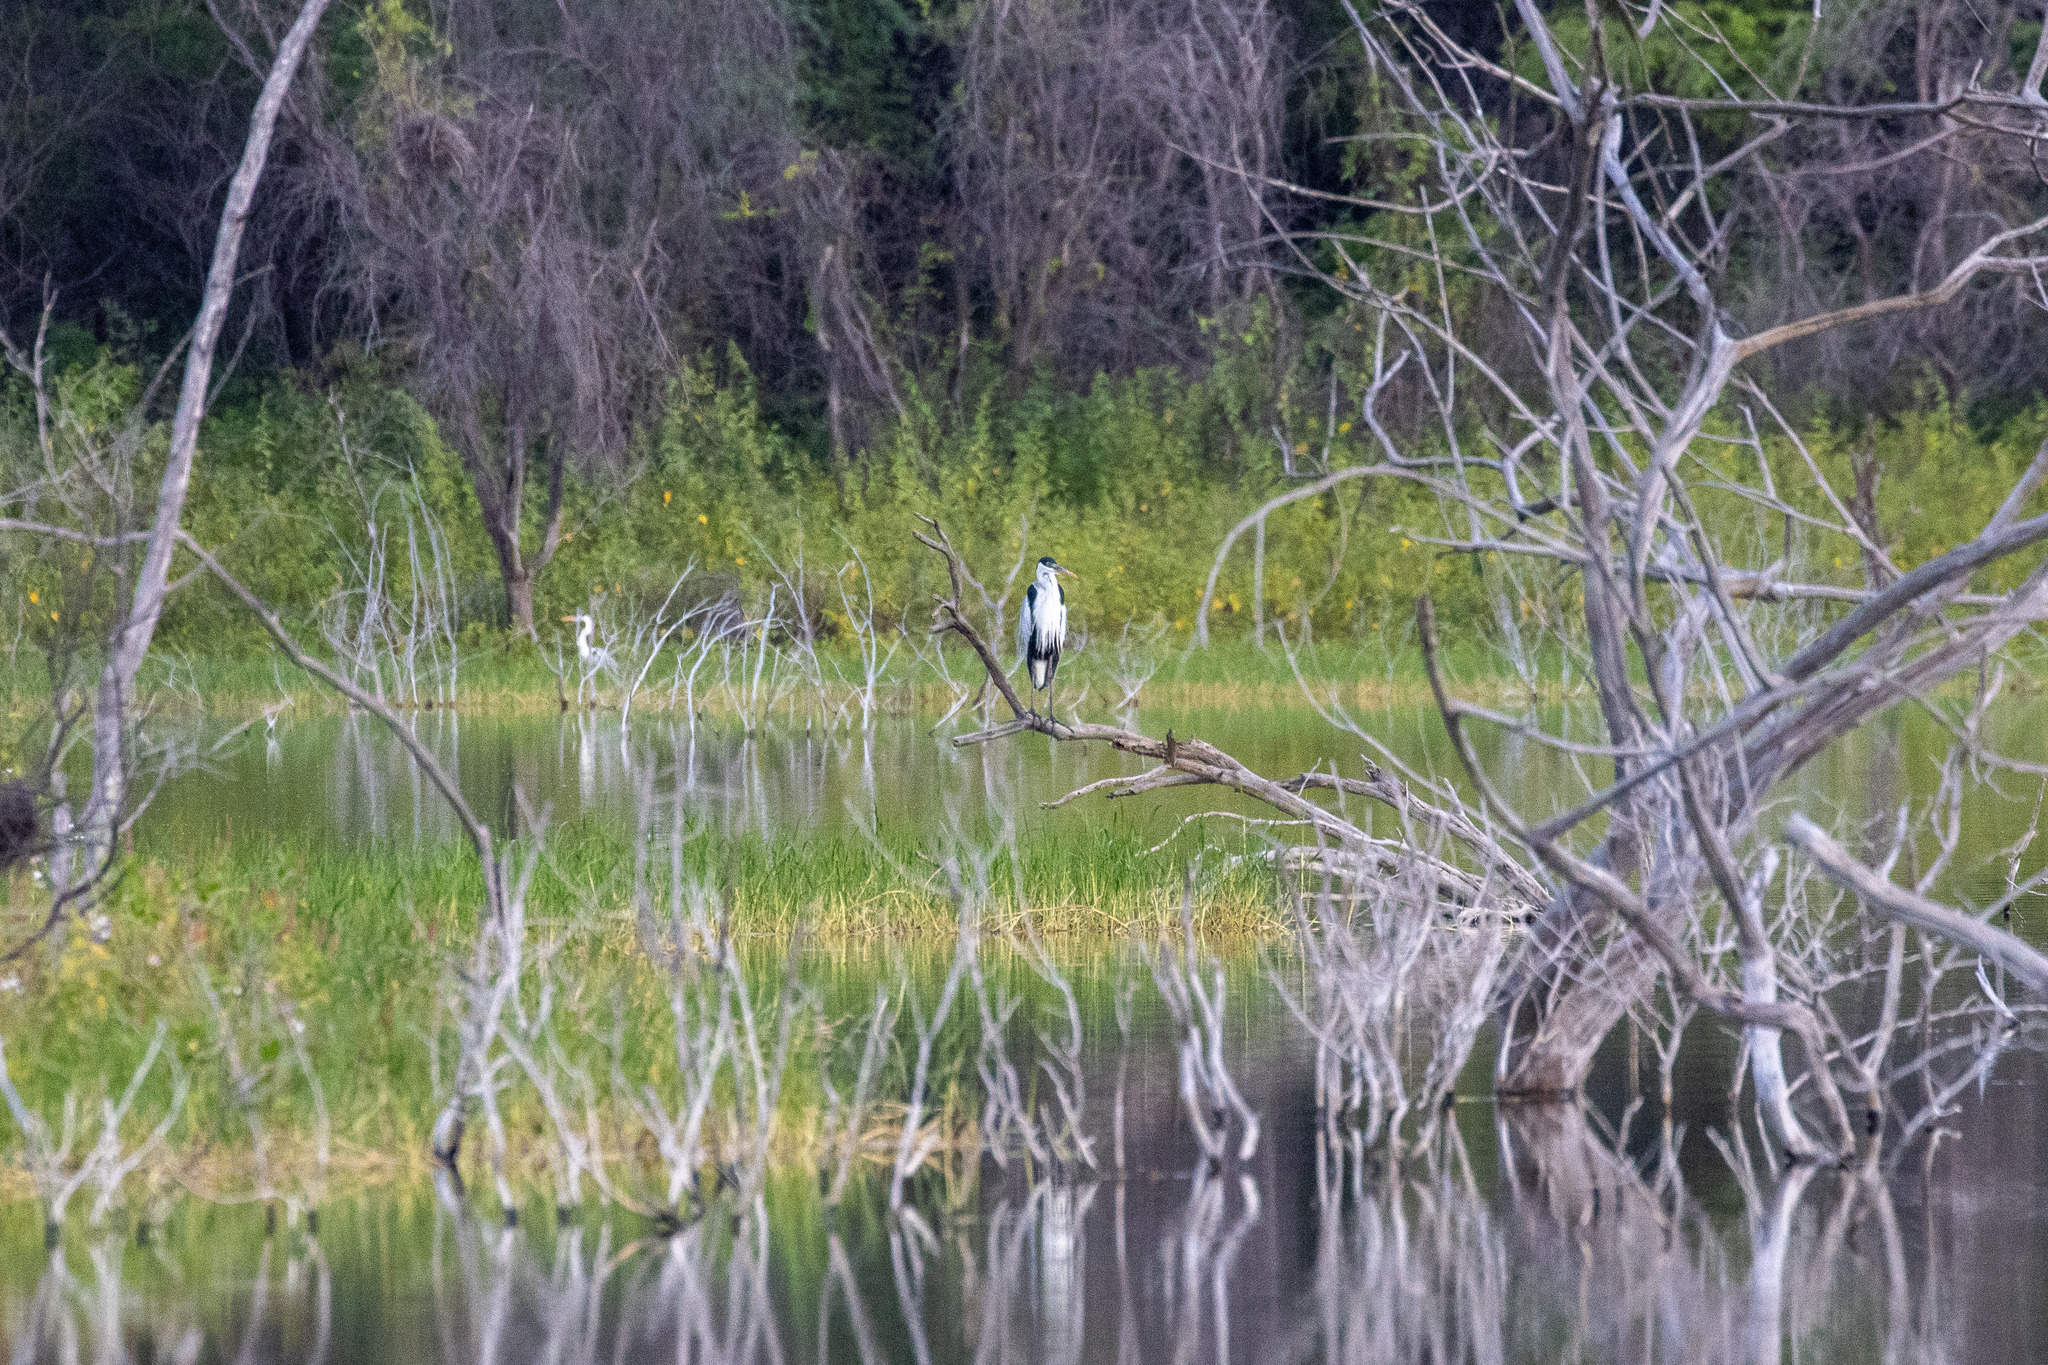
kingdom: Animalia
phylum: Chordata
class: Aves
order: Pelecaniformes
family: Ardeidae
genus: Ardea
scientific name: Ardea cocoi
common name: Cocoi heron
